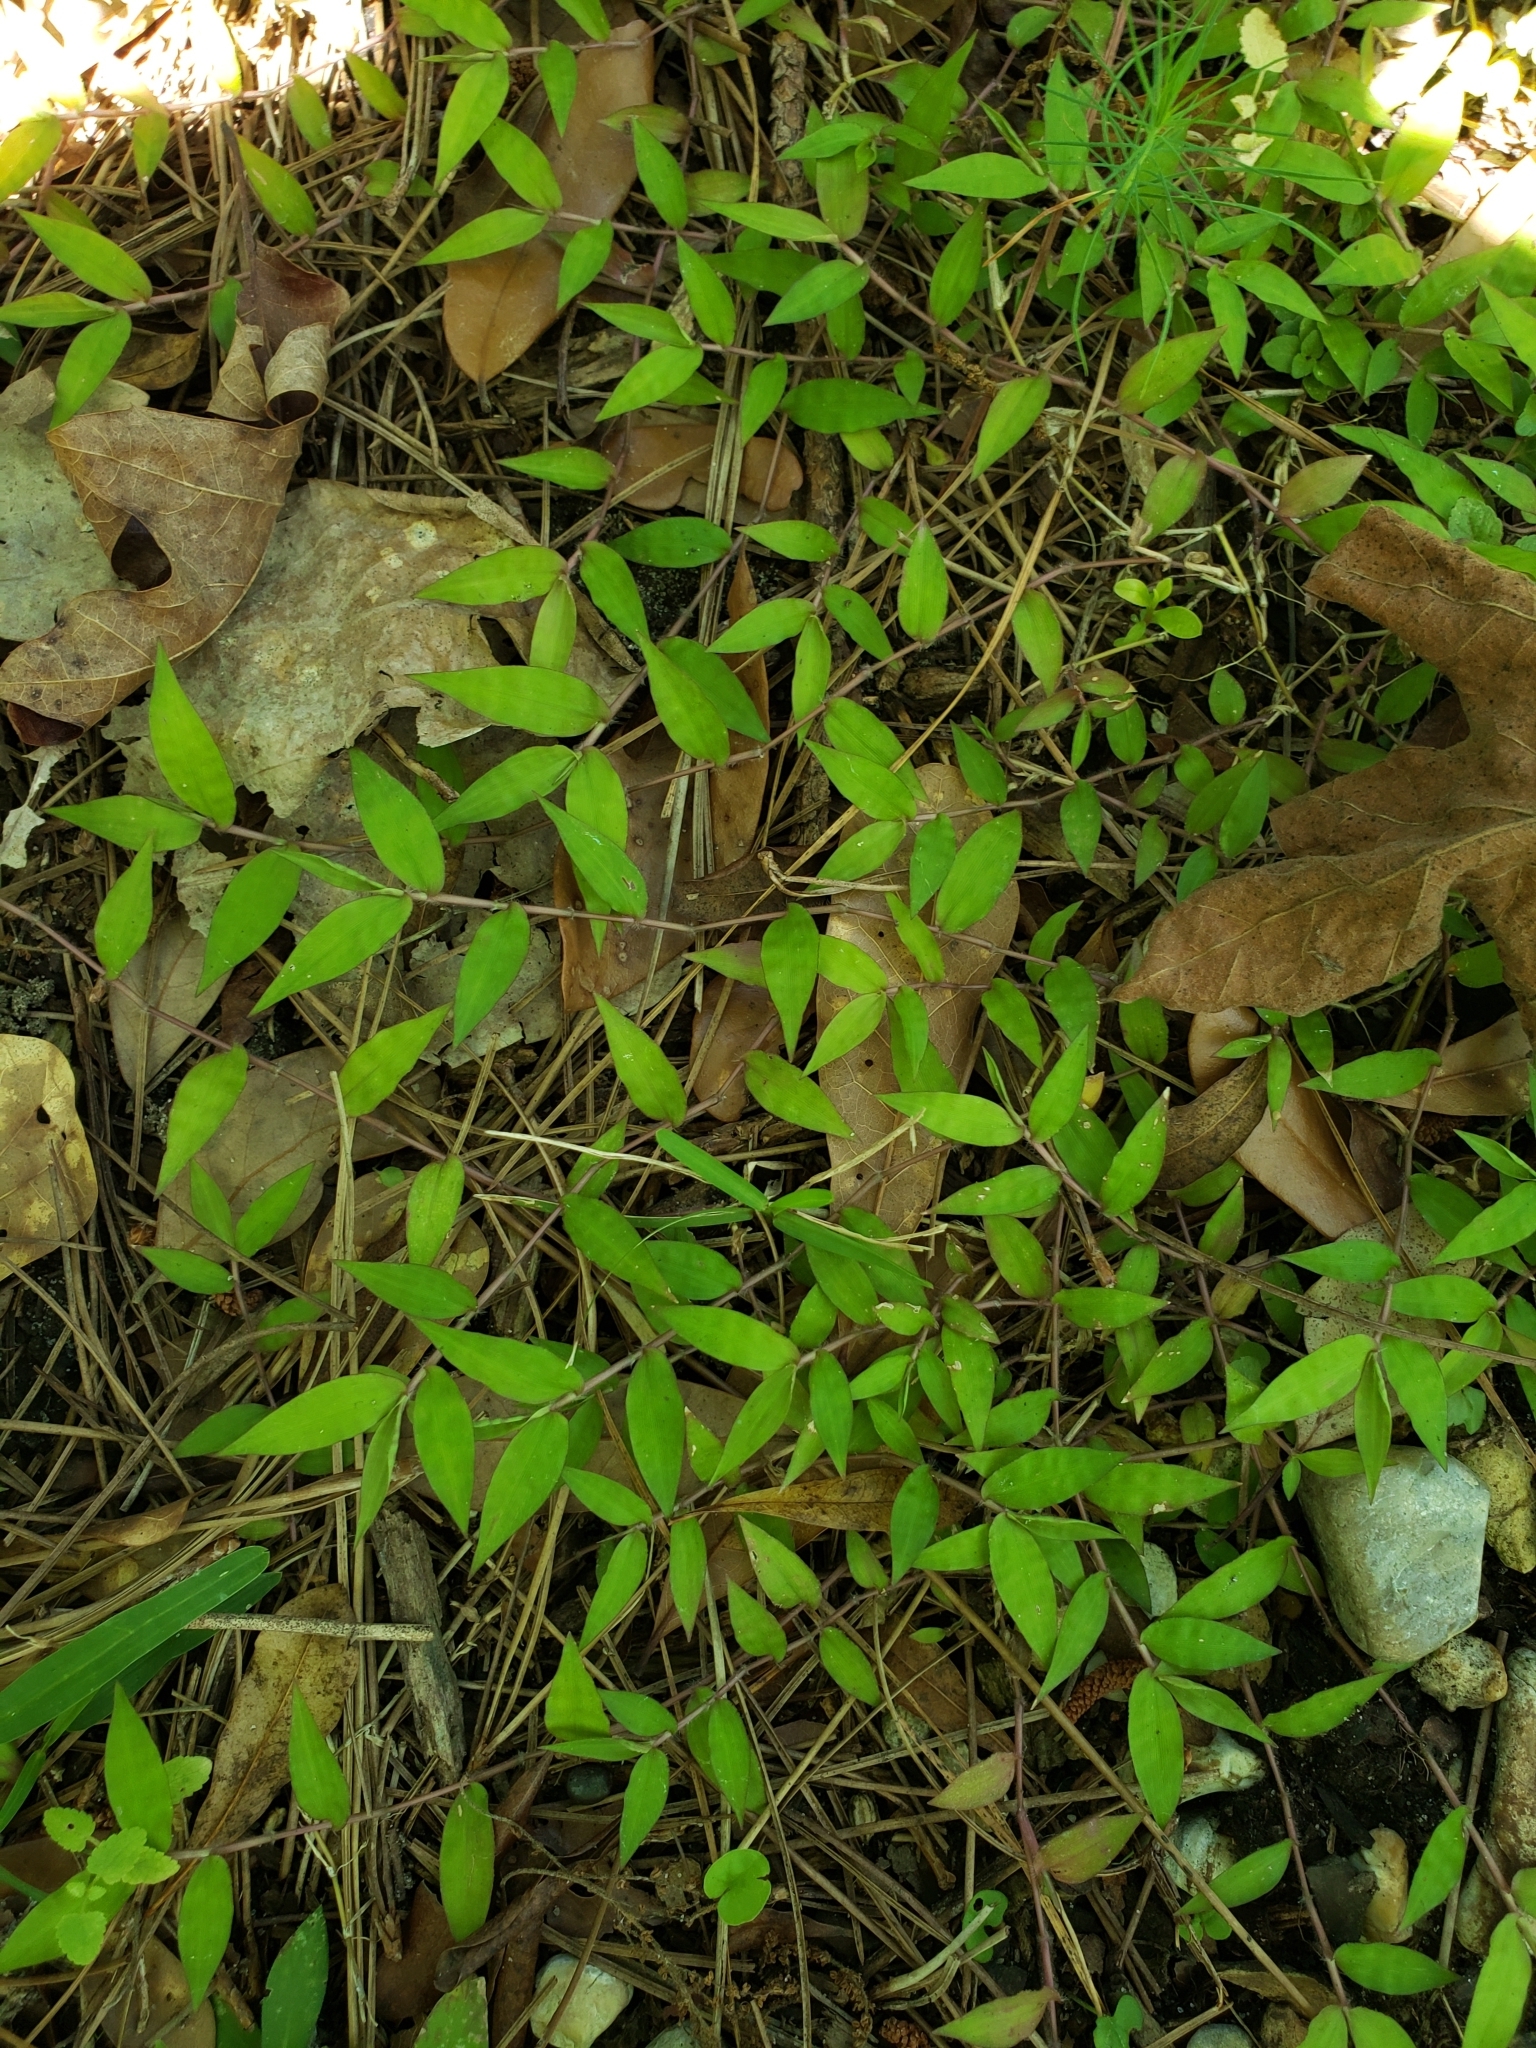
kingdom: Plantae
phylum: Tracheophyta
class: Liliopsida
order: Poales
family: Poaceae
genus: Oplismenus
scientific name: Oplismenus hirtellus
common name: Basketgrass
